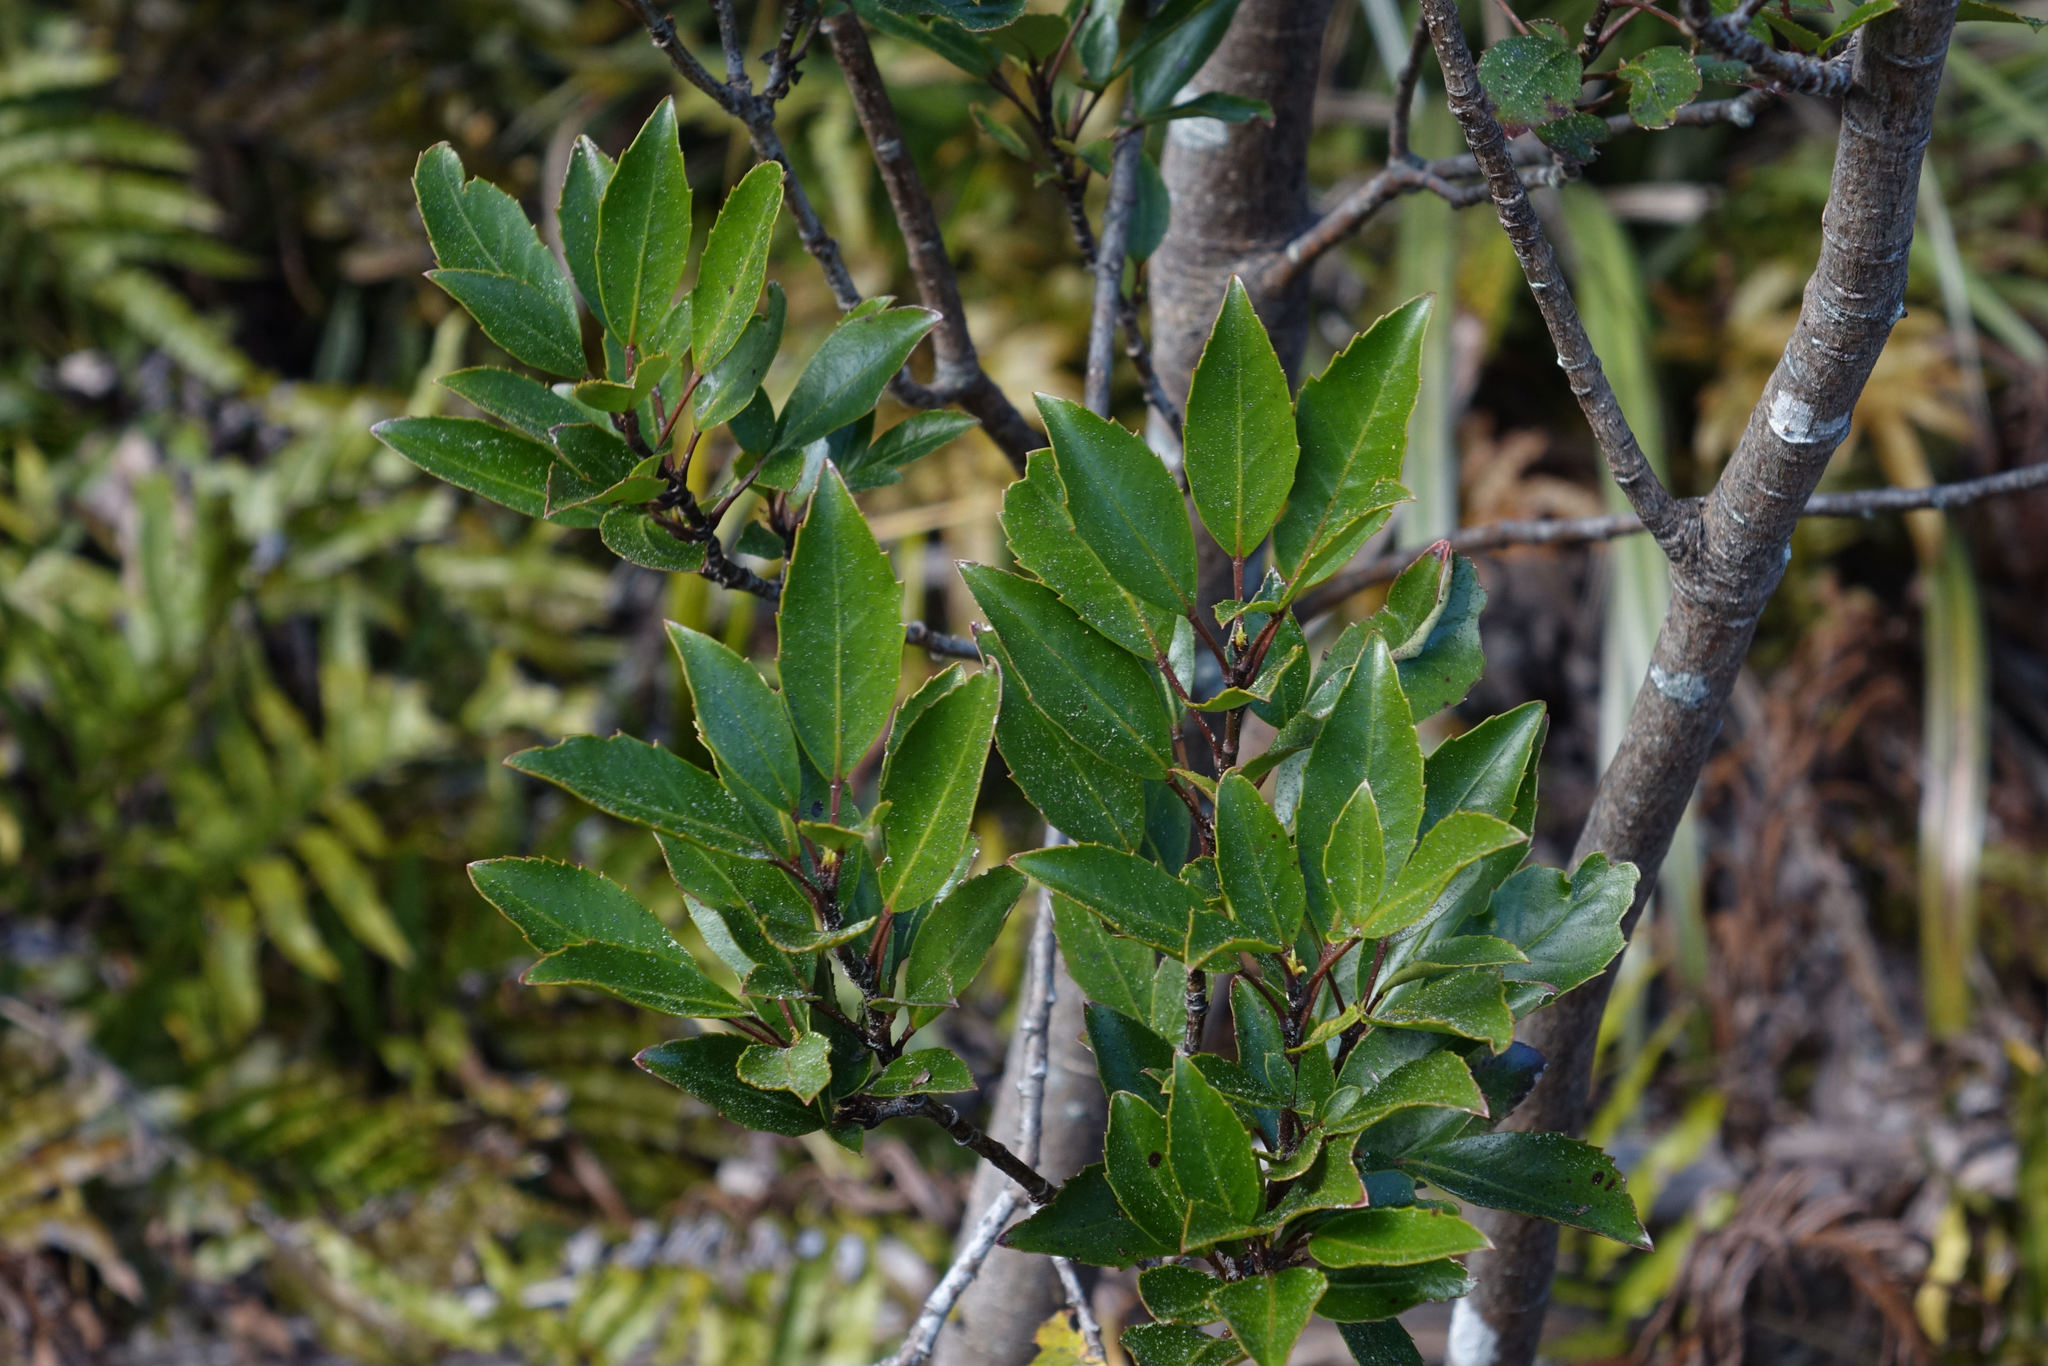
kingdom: Plantae
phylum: Tracheophyta
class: Magnoliopsida
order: Apiales
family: Araliaceae
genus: Raukaua
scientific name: Raukaua simplex
